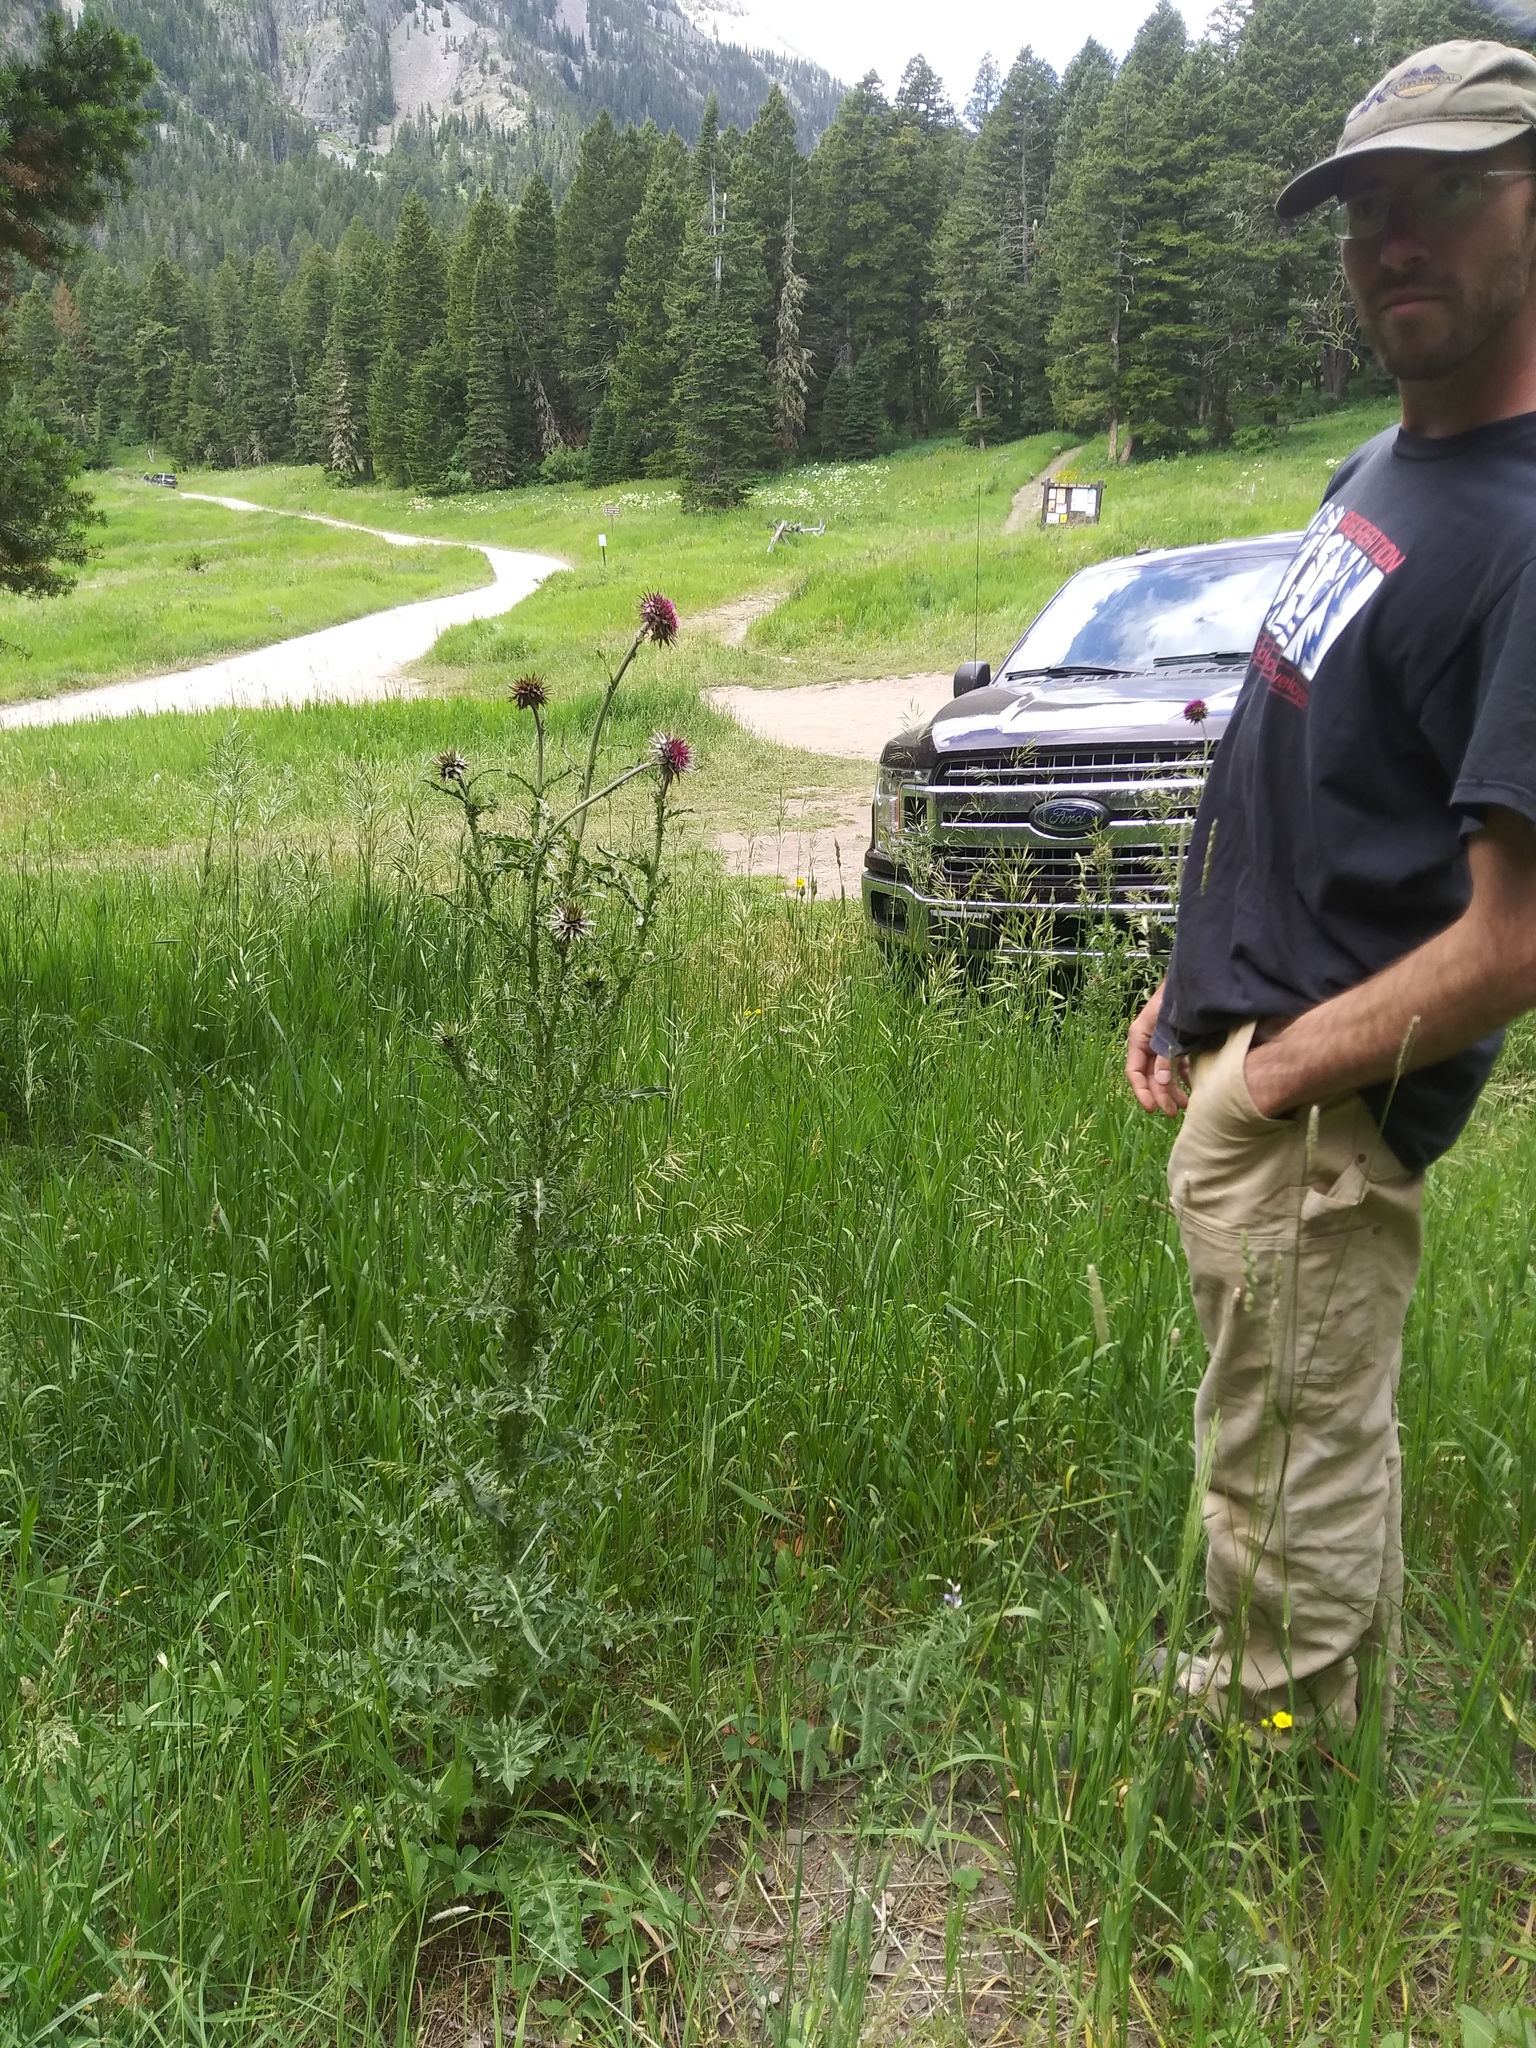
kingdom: Plantae
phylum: Tracheophyta
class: Magnoliopsida
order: Asterales
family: Asteraceae
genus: Carduus
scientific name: Carduus nutans
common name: Musk thistle
